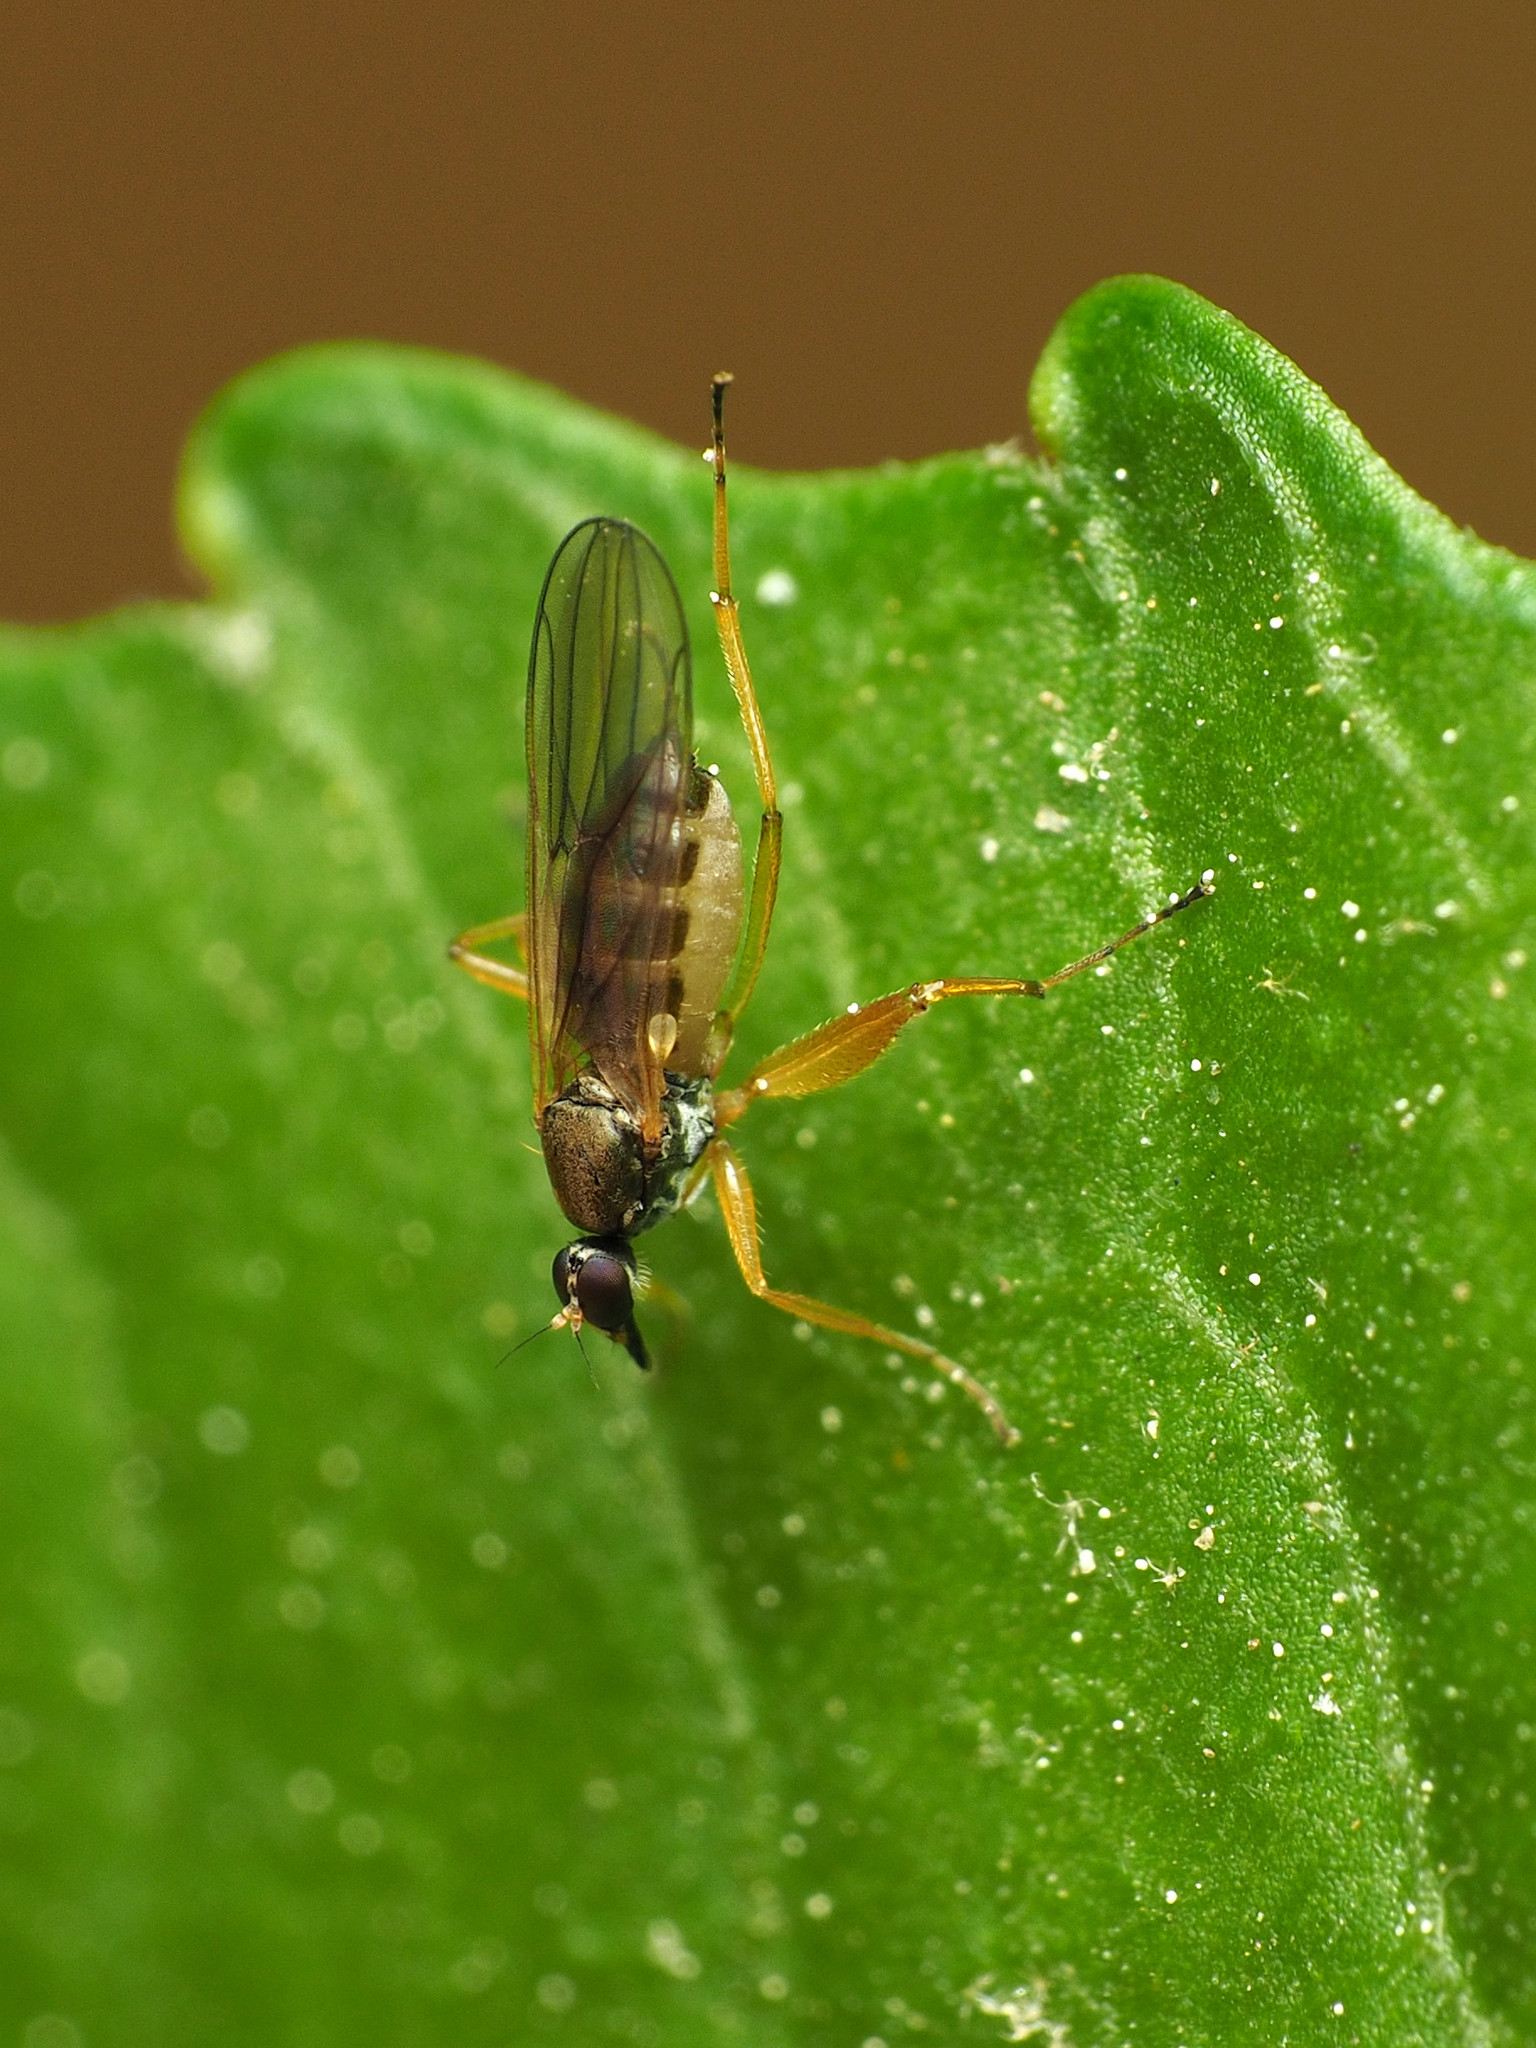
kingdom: Animalia
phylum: Arthropoda
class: Insecta
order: Diptera
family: Hybotidae
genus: Platypalpus
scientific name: Platypalpus discifer
